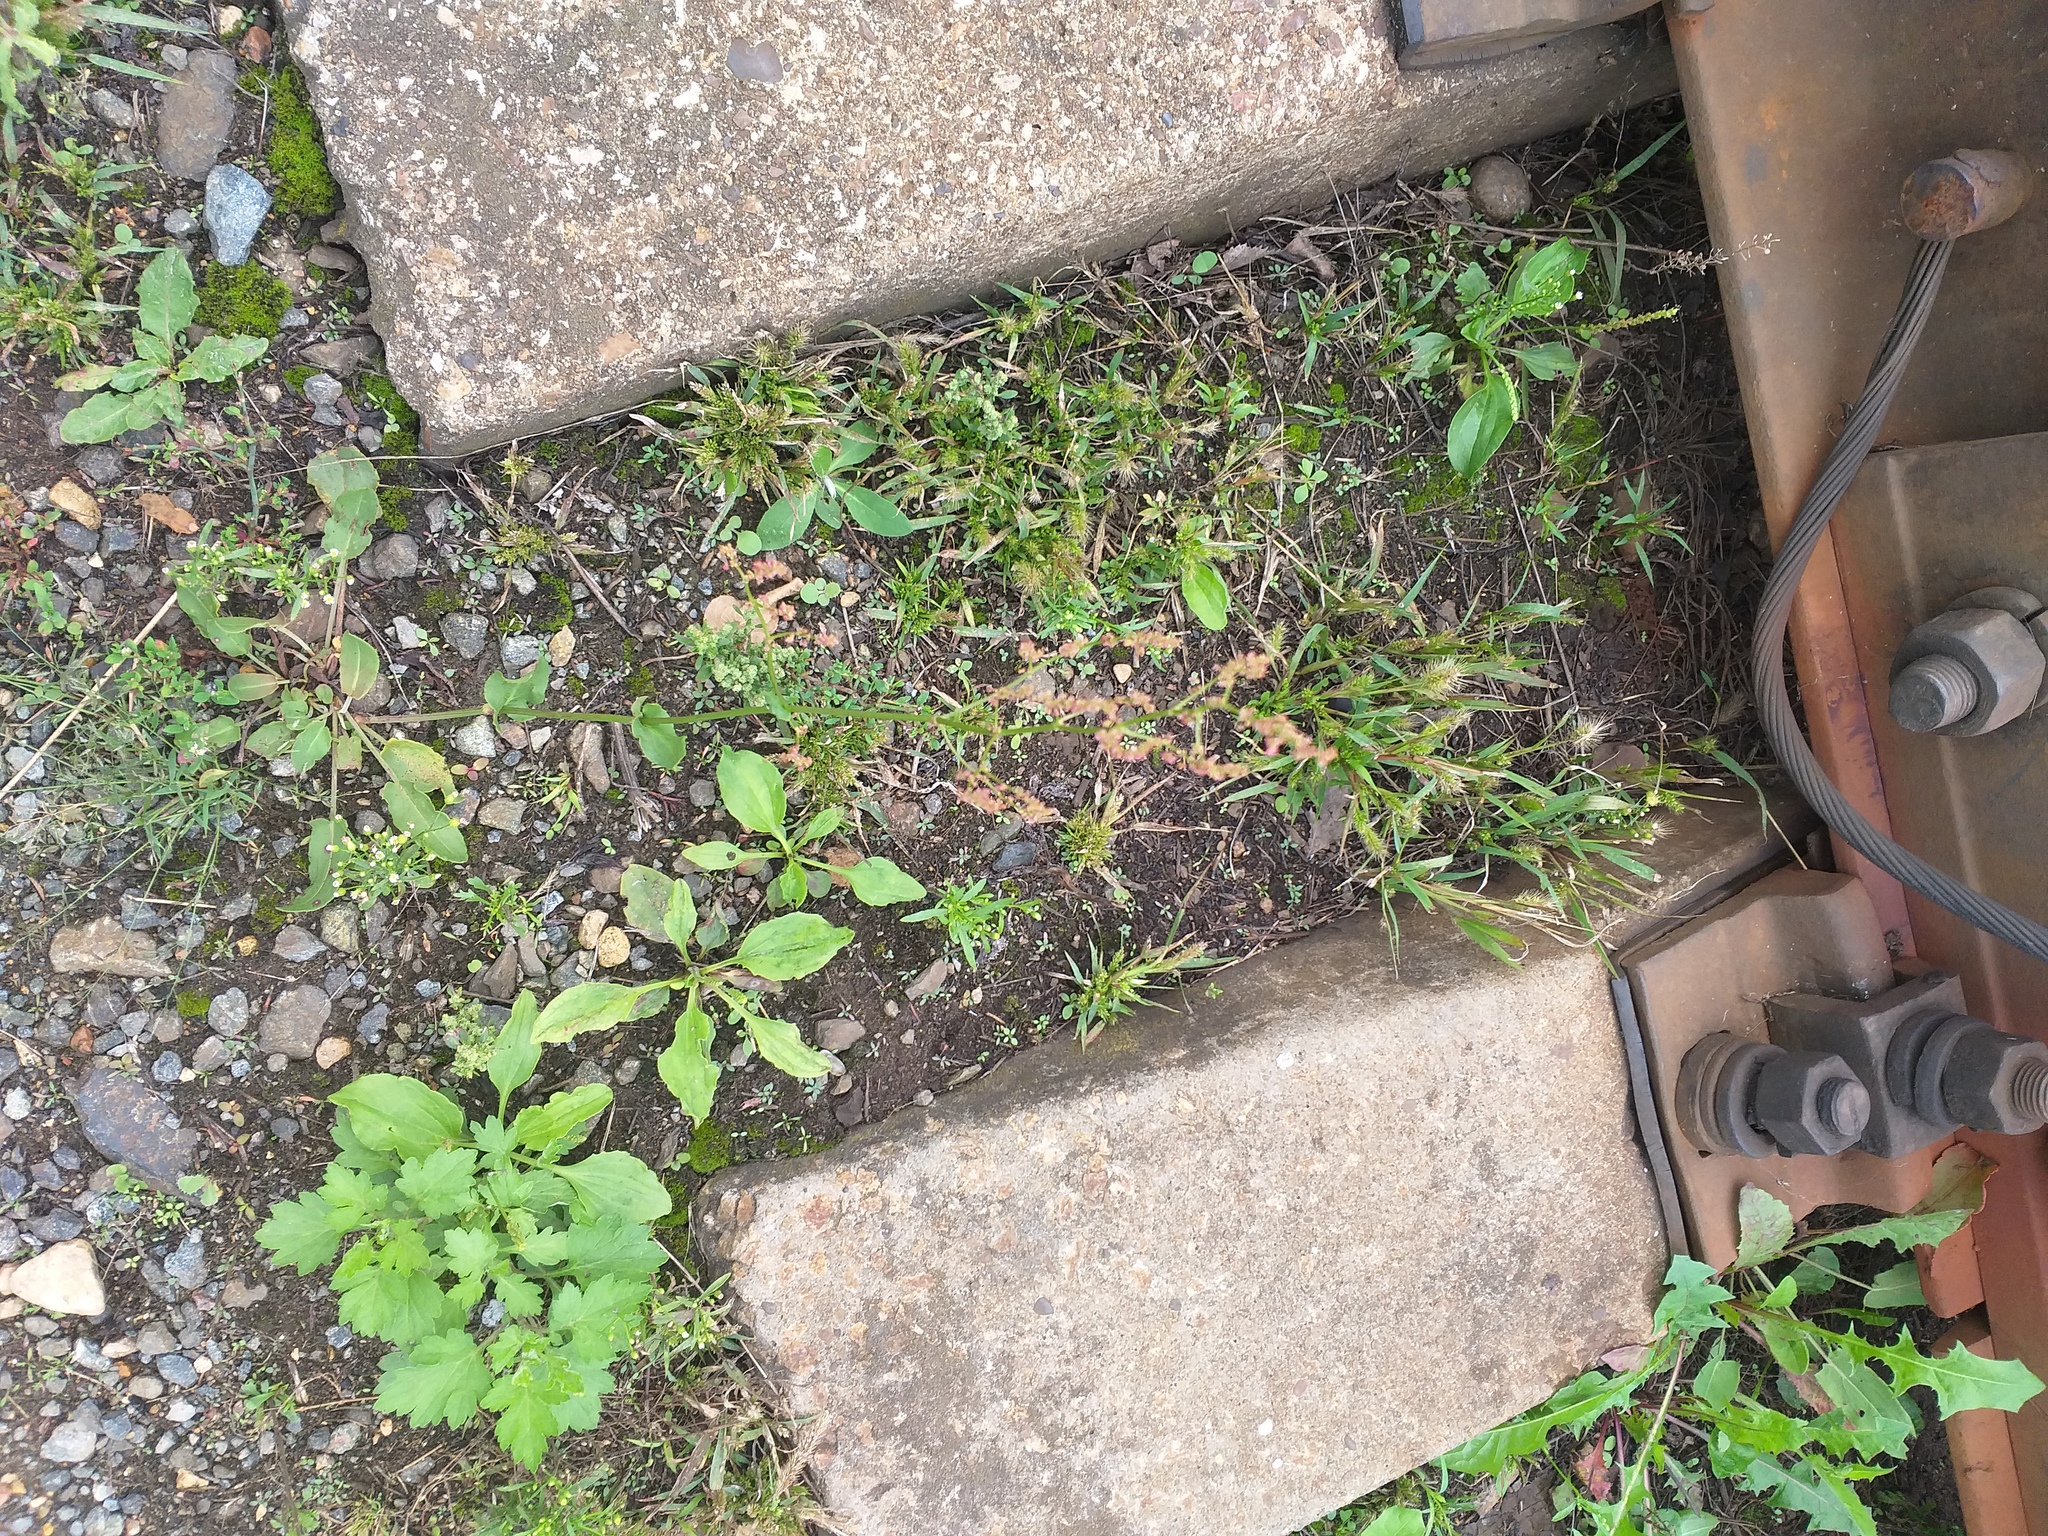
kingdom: Plantae
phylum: Tracheophyta
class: Magnoliopsida
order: Caryophyllales
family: Polygonaceae
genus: Rumex
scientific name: Rumex thyrsiflorus
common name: Garden sorrel
